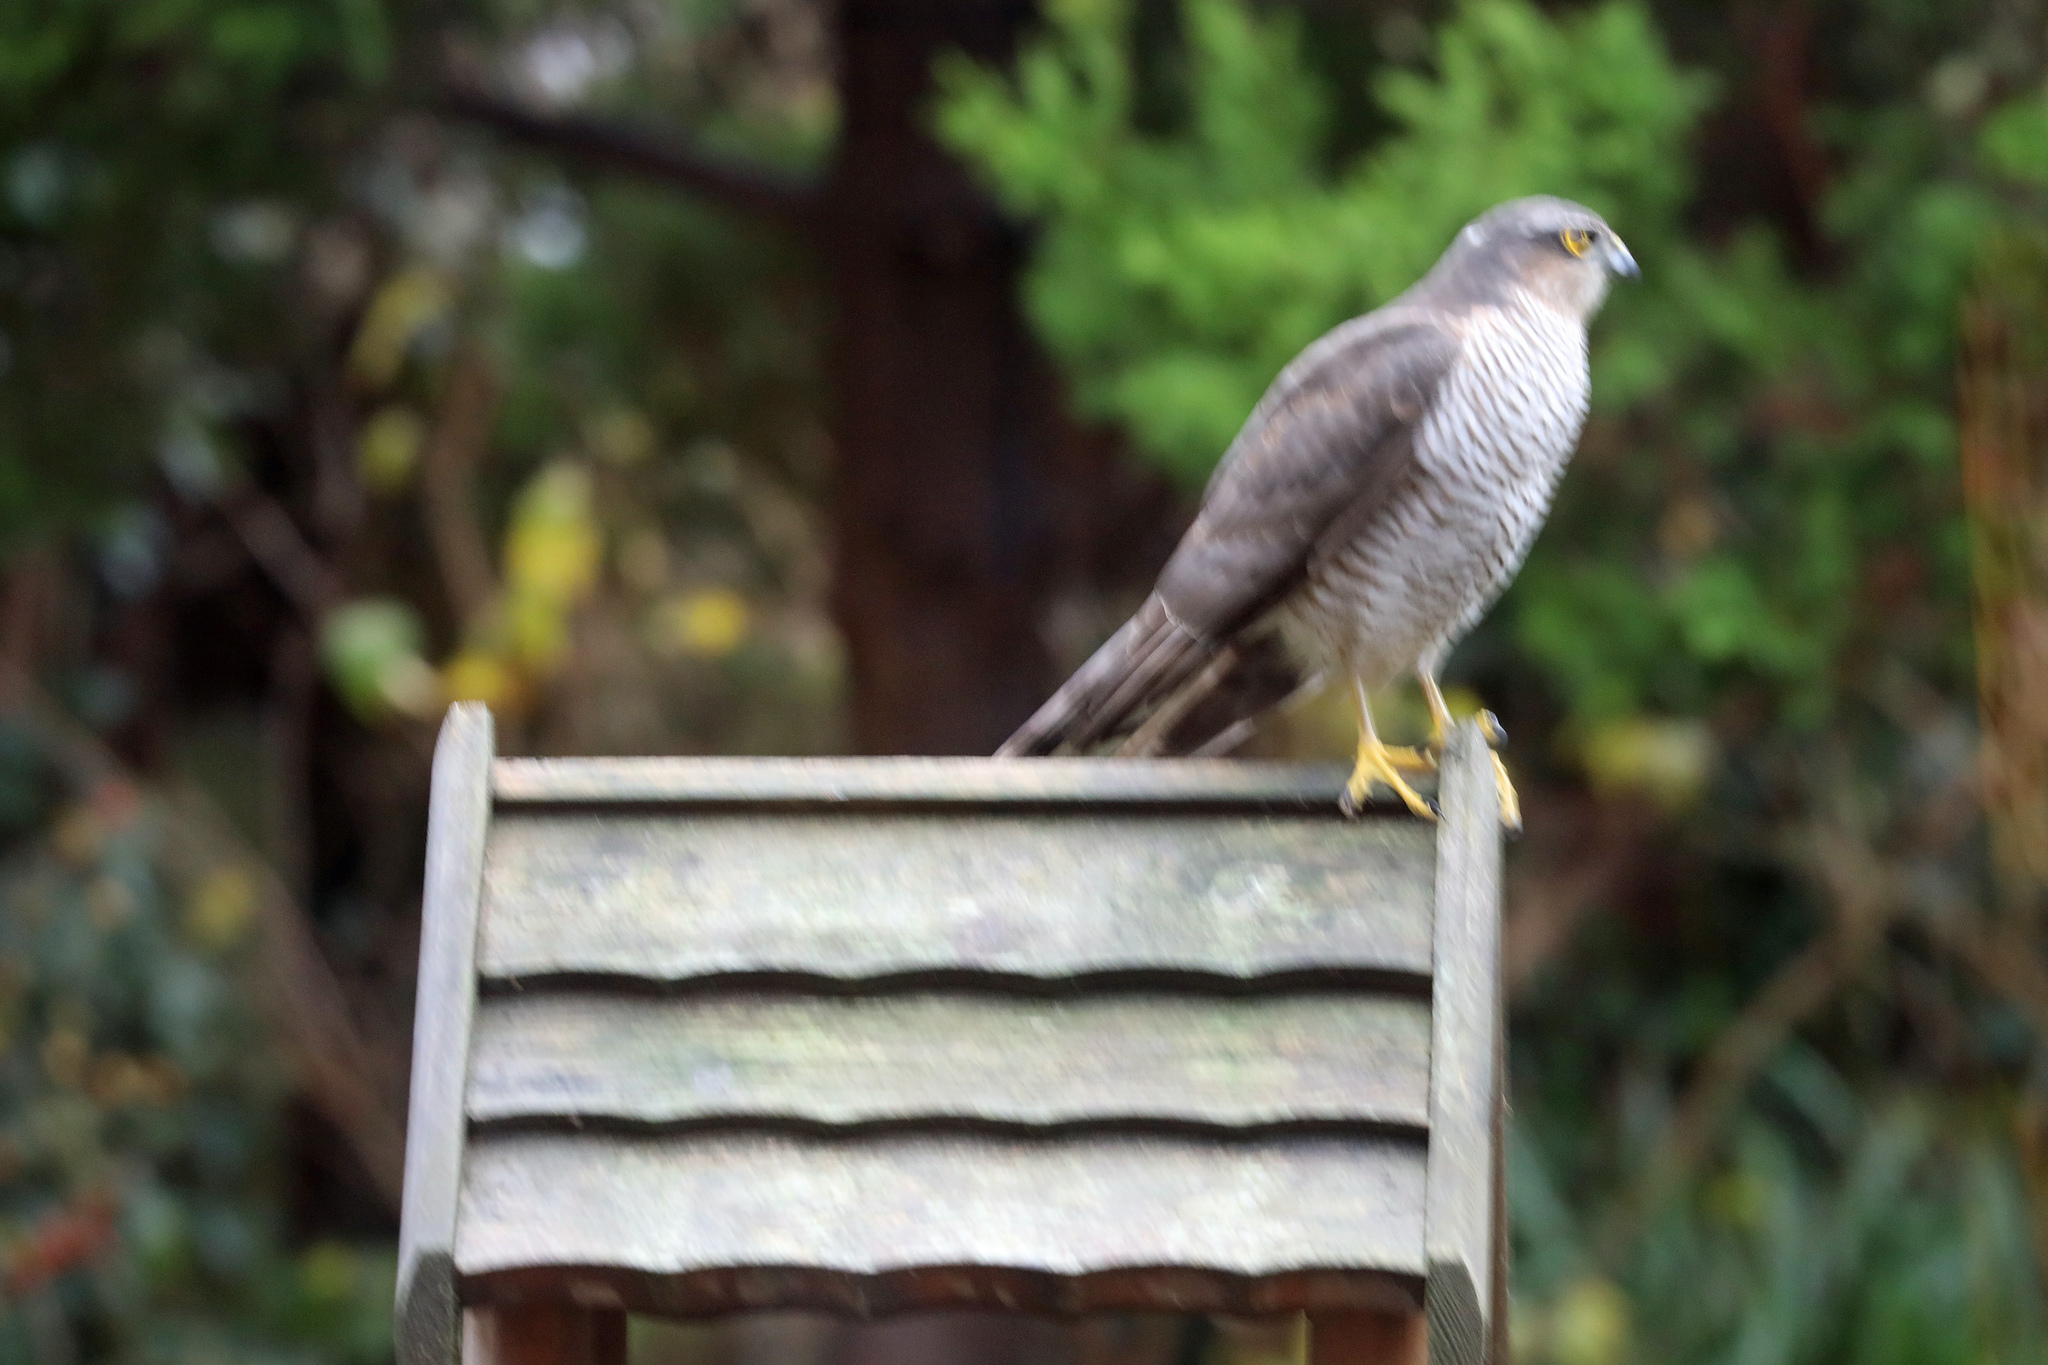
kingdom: Animalia
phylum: Chordata
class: Aves
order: Accipitriformes
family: Accipitridae
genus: Accipiter
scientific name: Accipiter nisus
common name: Eurasian sparrowhawk
